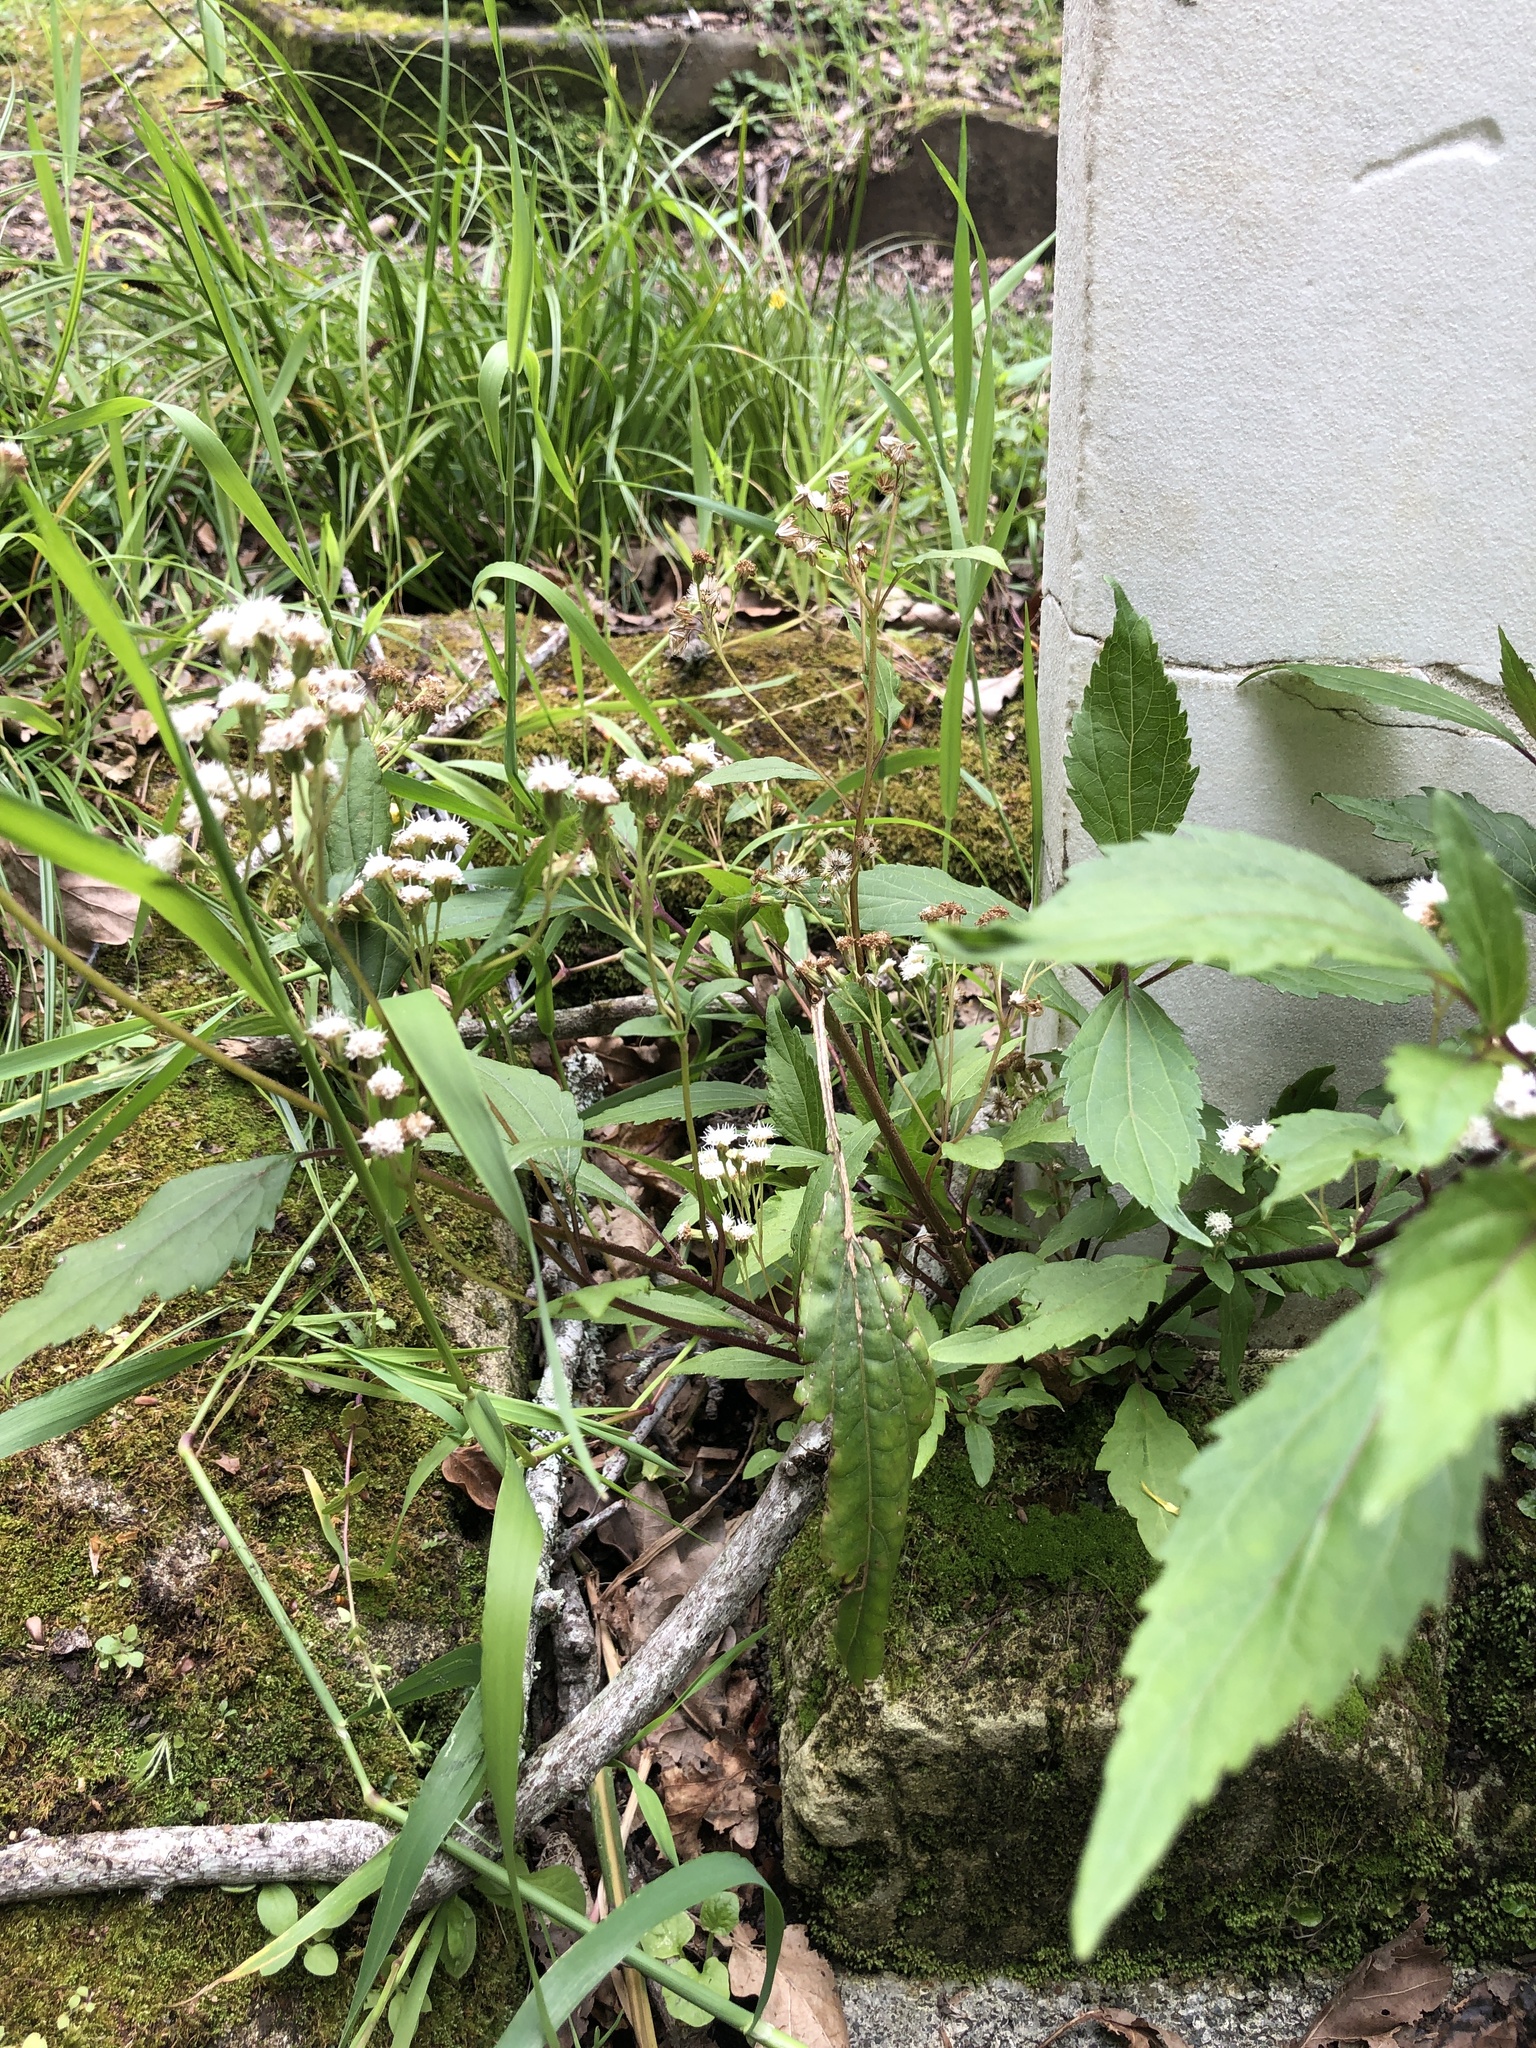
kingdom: Plantae
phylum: Tracheophyta
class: Magnoliopsida
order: Asterales
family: Asteraceae
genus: Ageratina
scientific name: Ageratina riparia
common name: Creeping croftonweed
